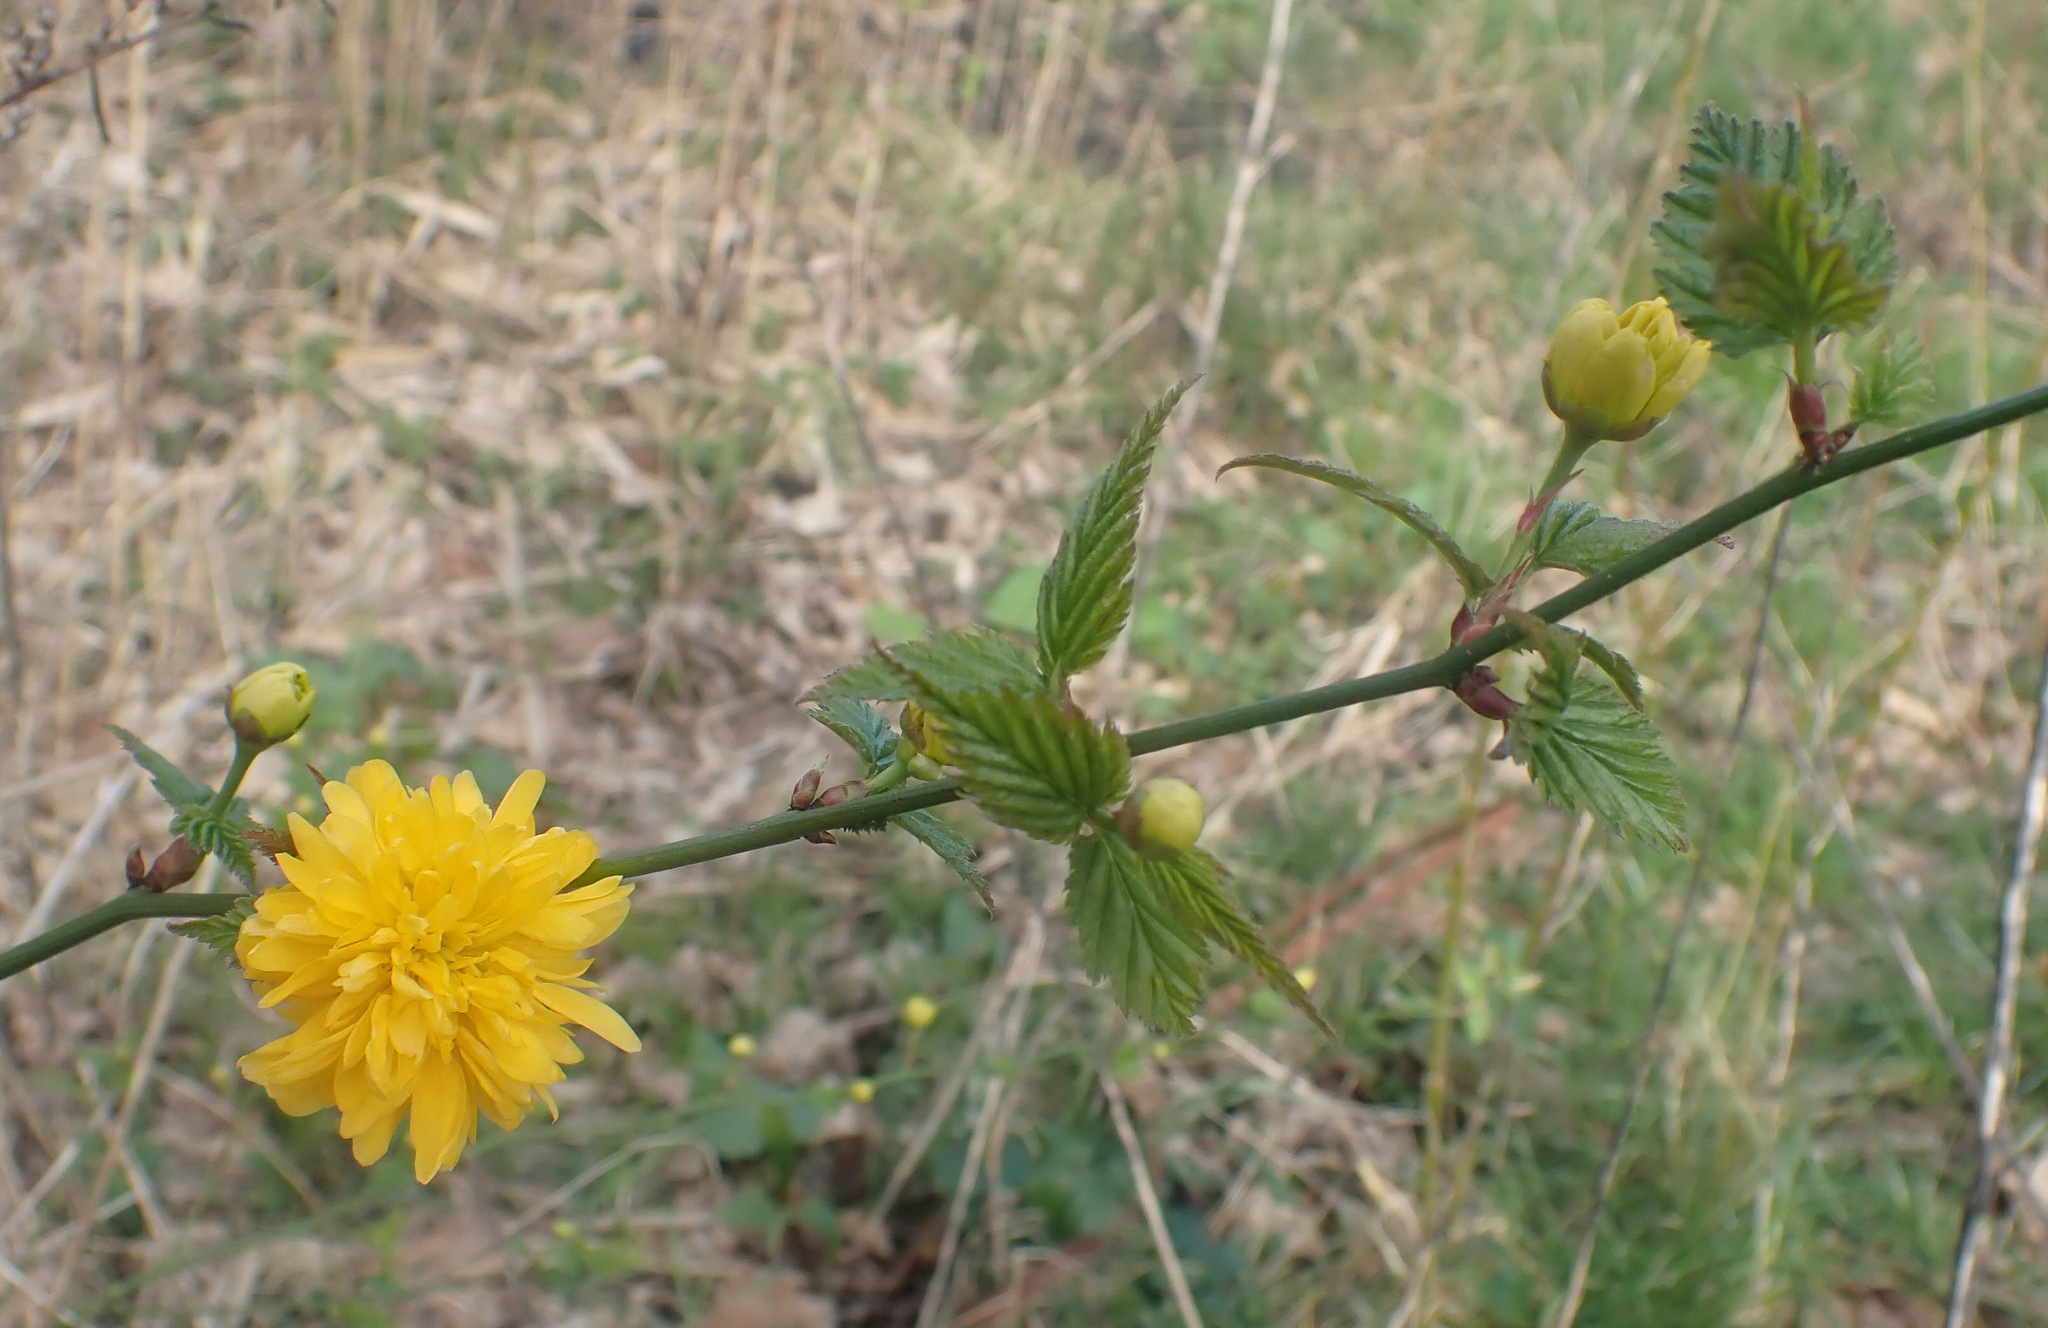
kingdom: Plantae
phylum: Tracheophyta
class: Magnoliopsida
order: Rosales
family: Rosaceae
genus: Kerria
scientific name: Kerria japonica
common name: Japanese kerria
